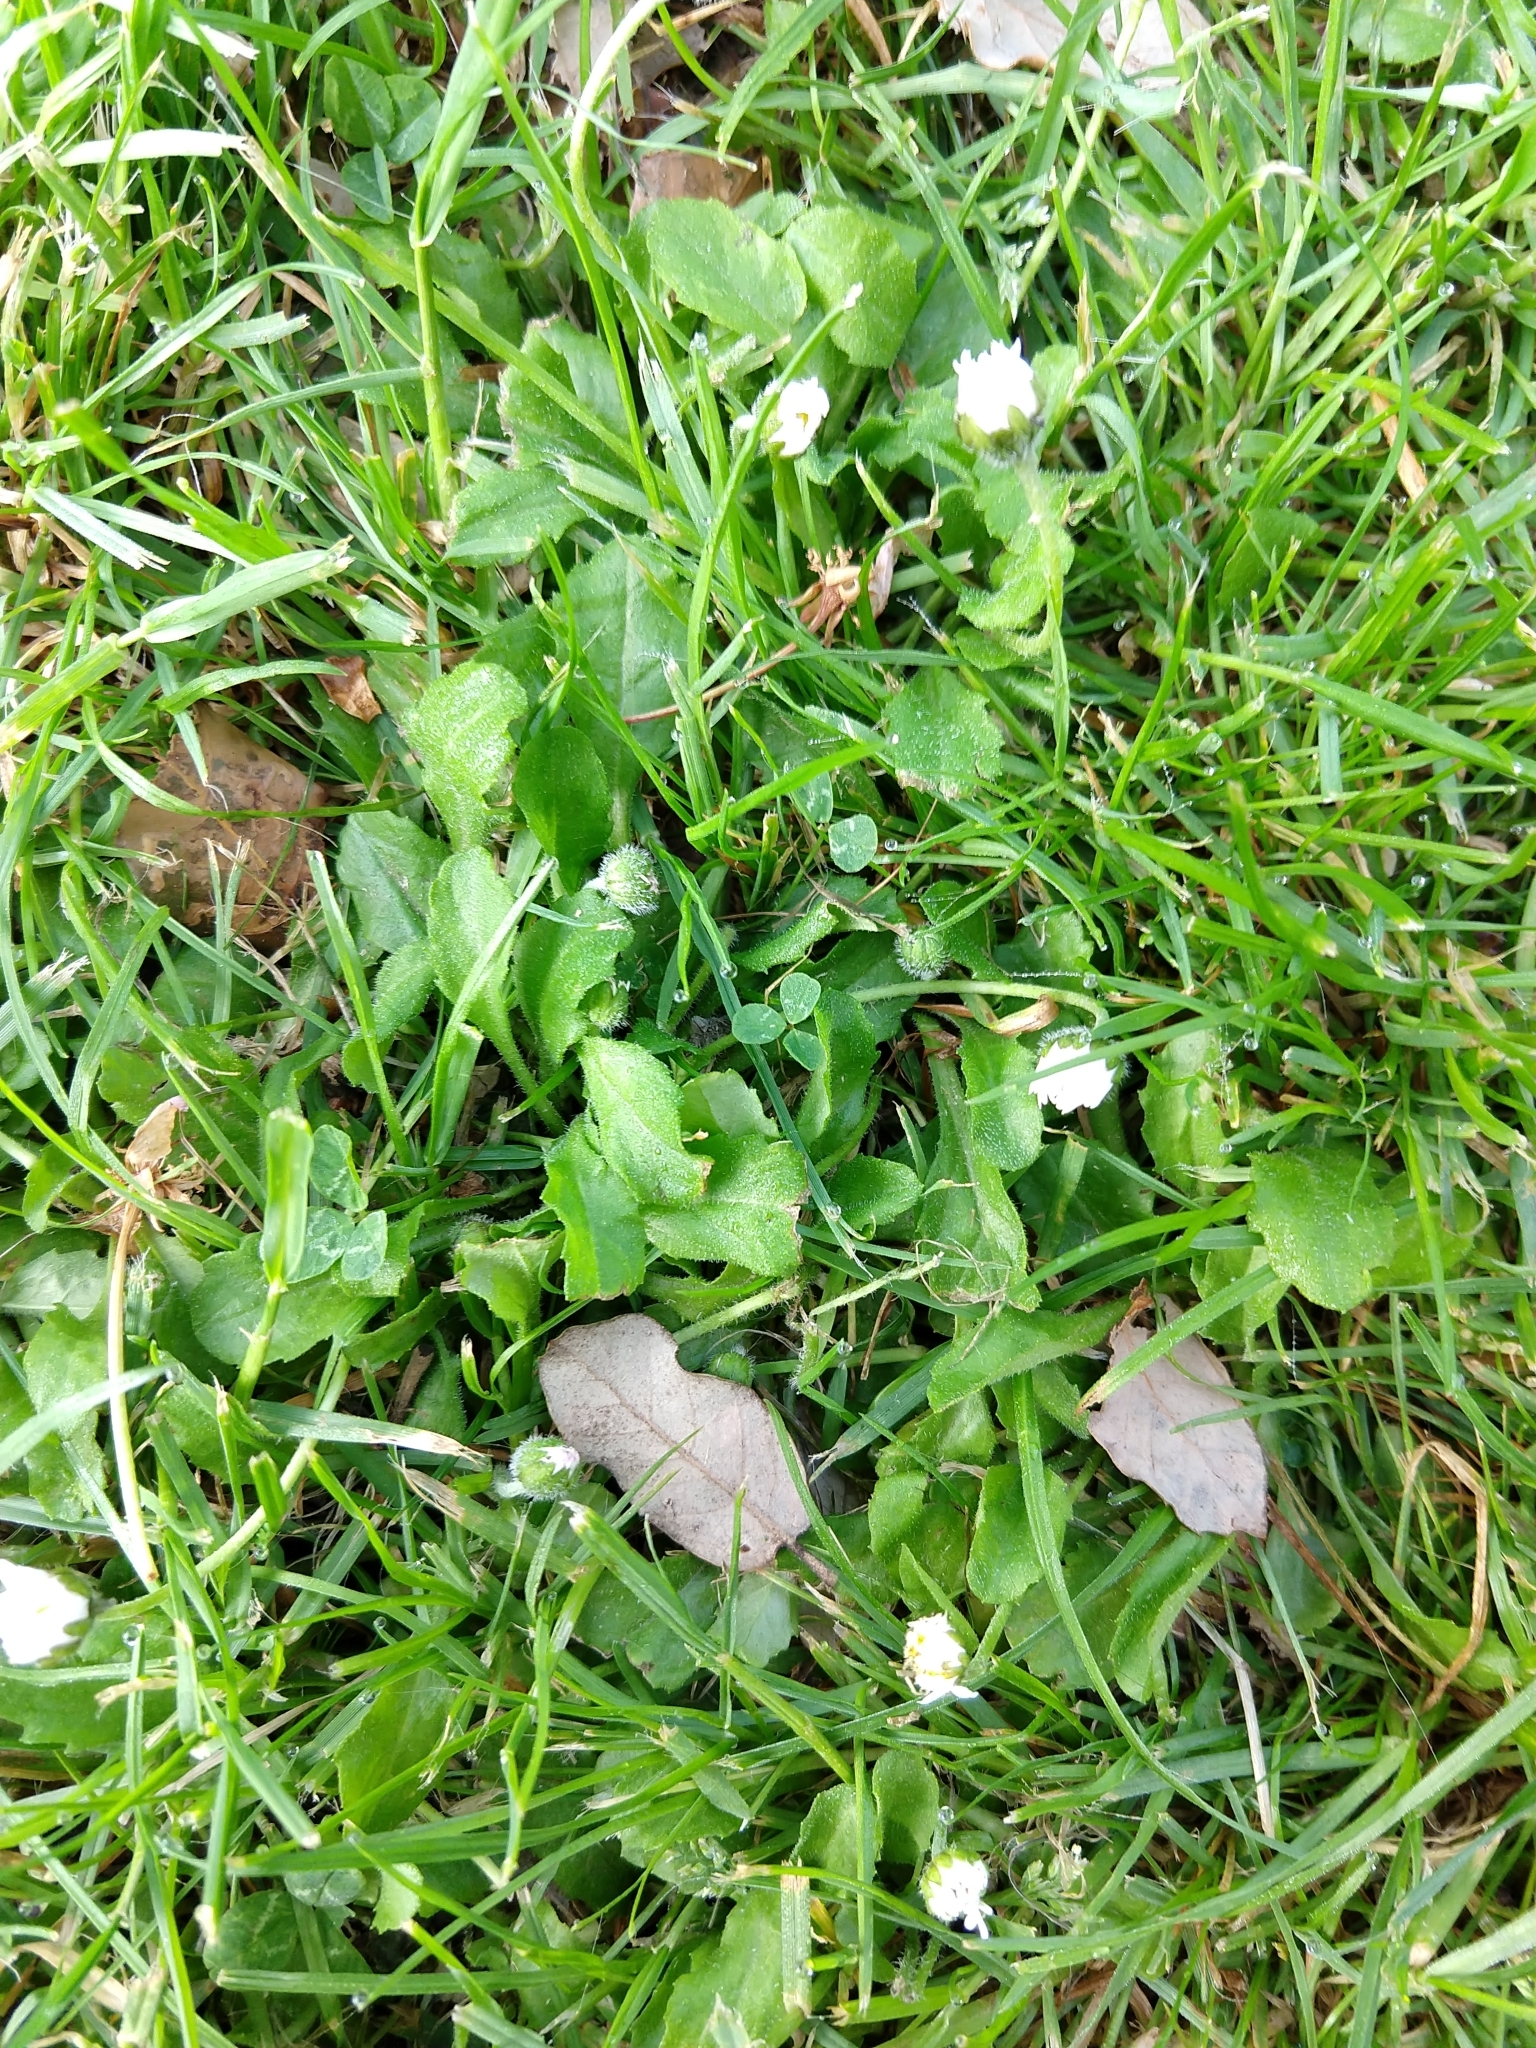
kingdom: Plantae
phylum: Tracheophyta
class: Magnoliopsida
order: Asterales
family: Asteraceae
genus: Bellis
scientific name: Bellis perennis
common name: Lawndaisy
